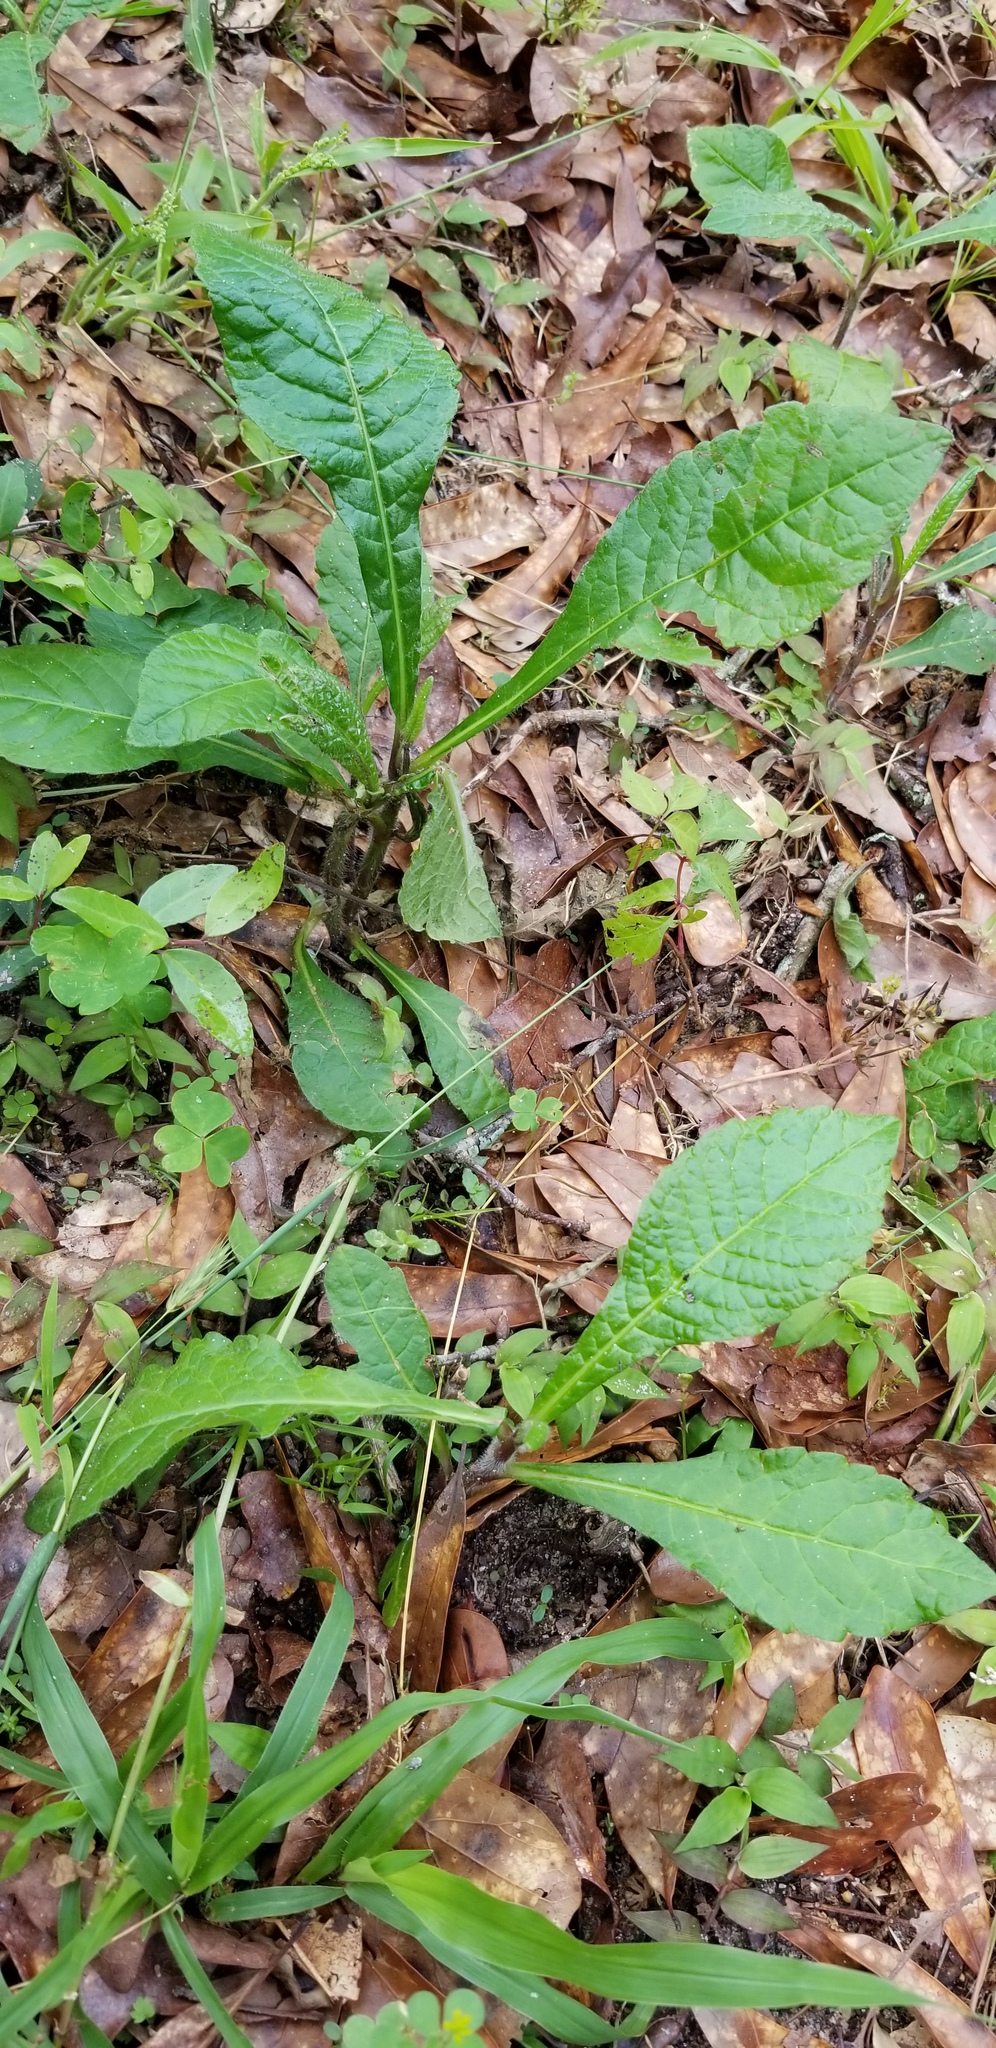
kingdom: Plantae
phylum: Tracheophyta
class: Magnoliopsida
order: Asterales
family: Asteraceae
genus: Elephantopus
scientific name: Elephantopus carolinianus
